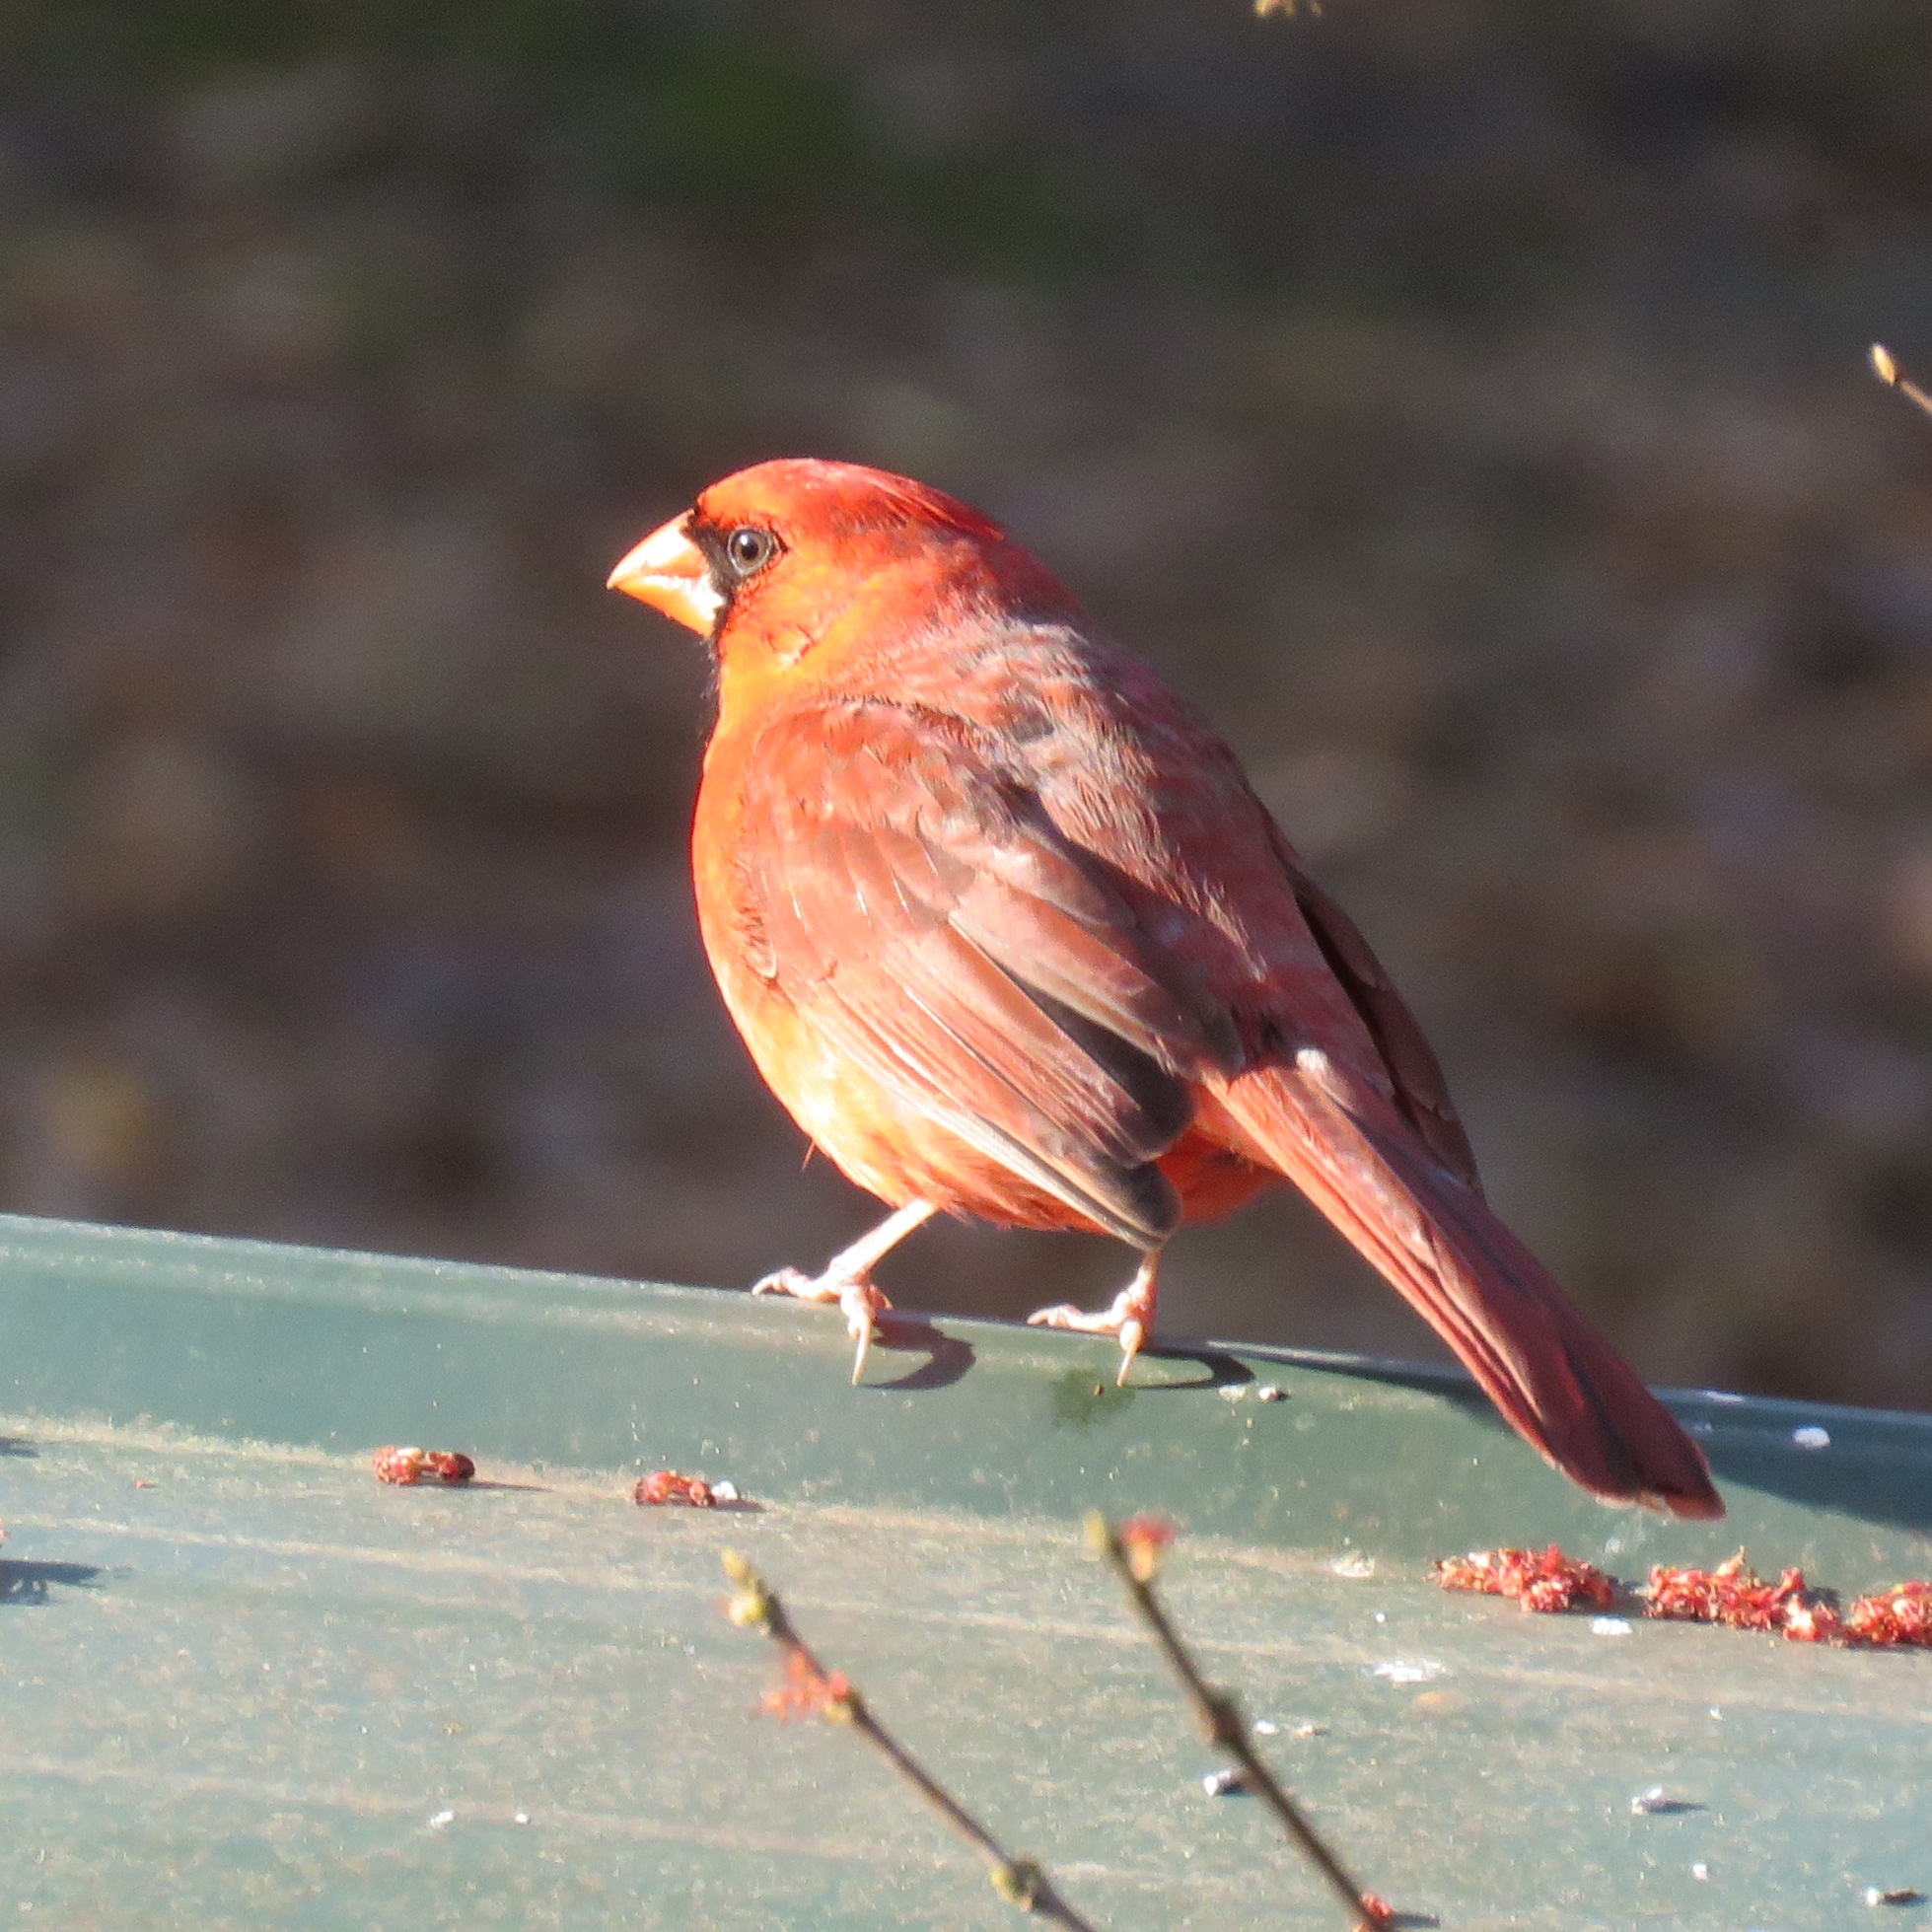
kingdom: Animalia
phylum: Chordata
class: Aves
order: Passeriformes
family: Cardinalidae
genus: Cardinalis
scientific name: Cardinalis cardinalis
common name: Northern cardinal
